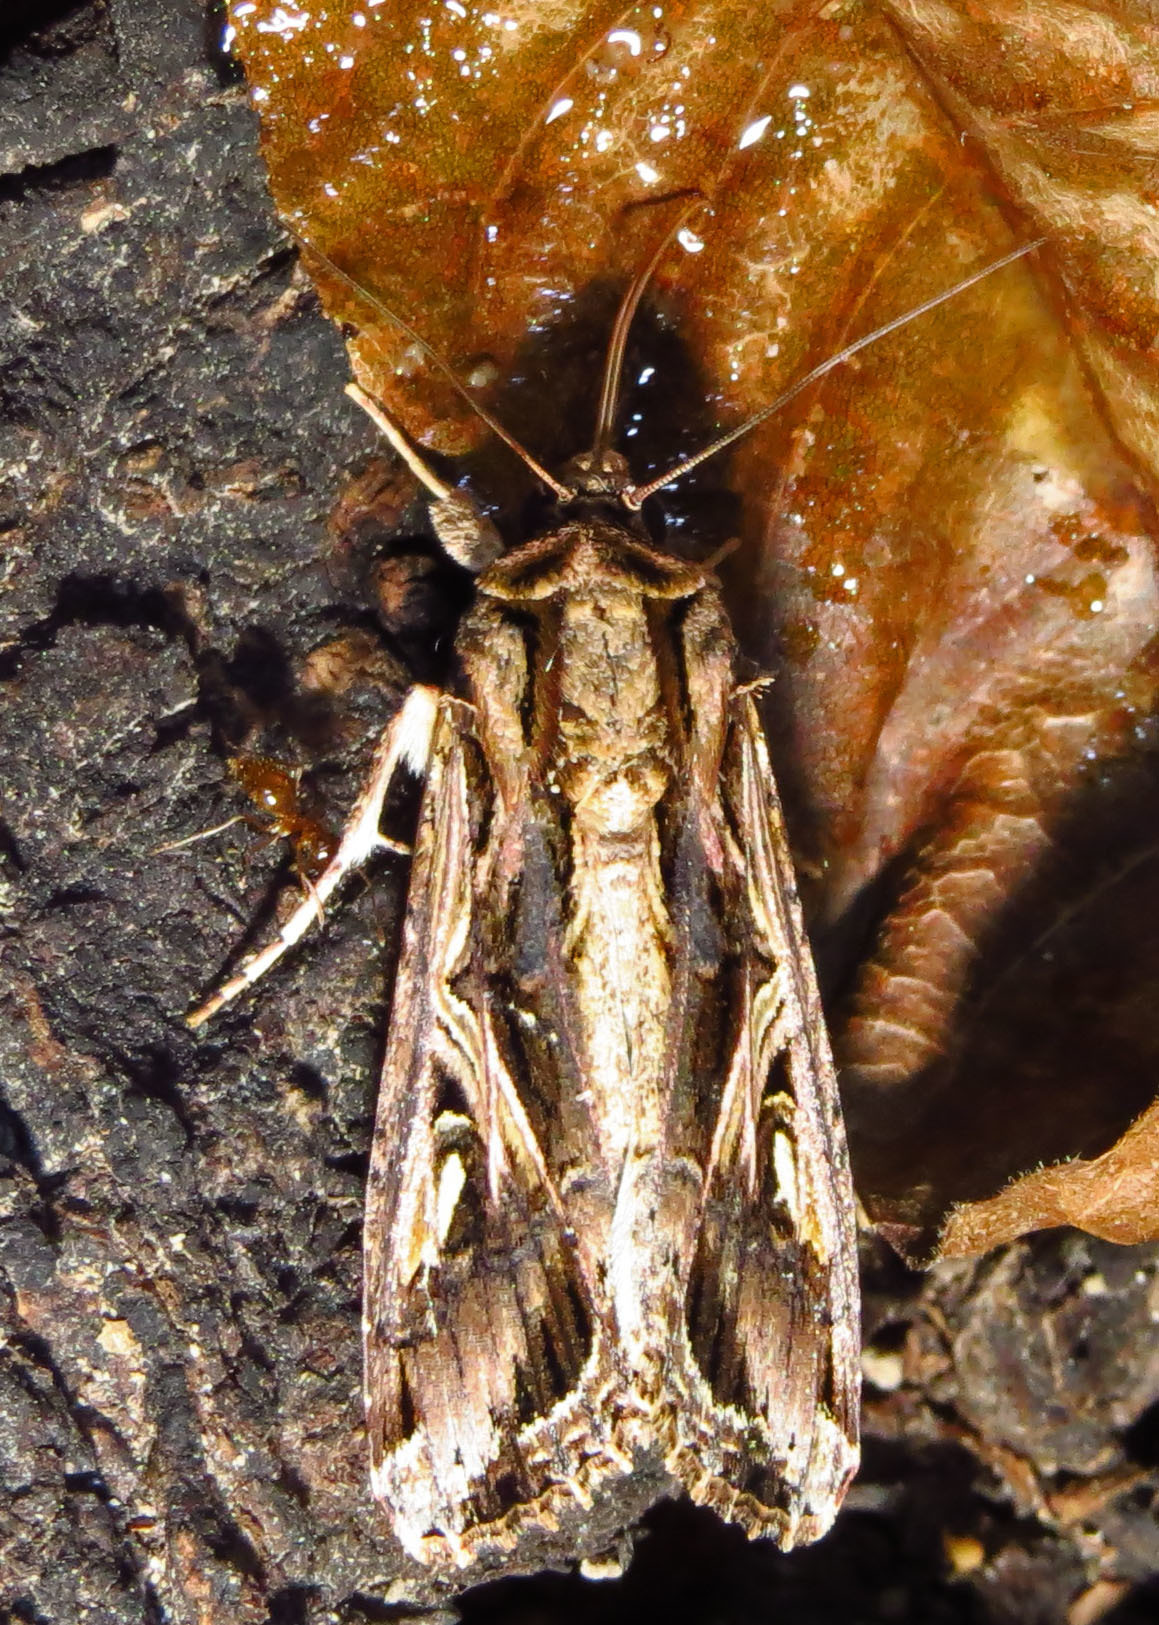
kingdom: Animalia
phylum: Arthropoda
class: Insecta
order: Lepidoptera
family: Noctuidae
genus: Spodoptera
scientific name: Spodoptera dolichos
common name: Sweetpotato armyworm
